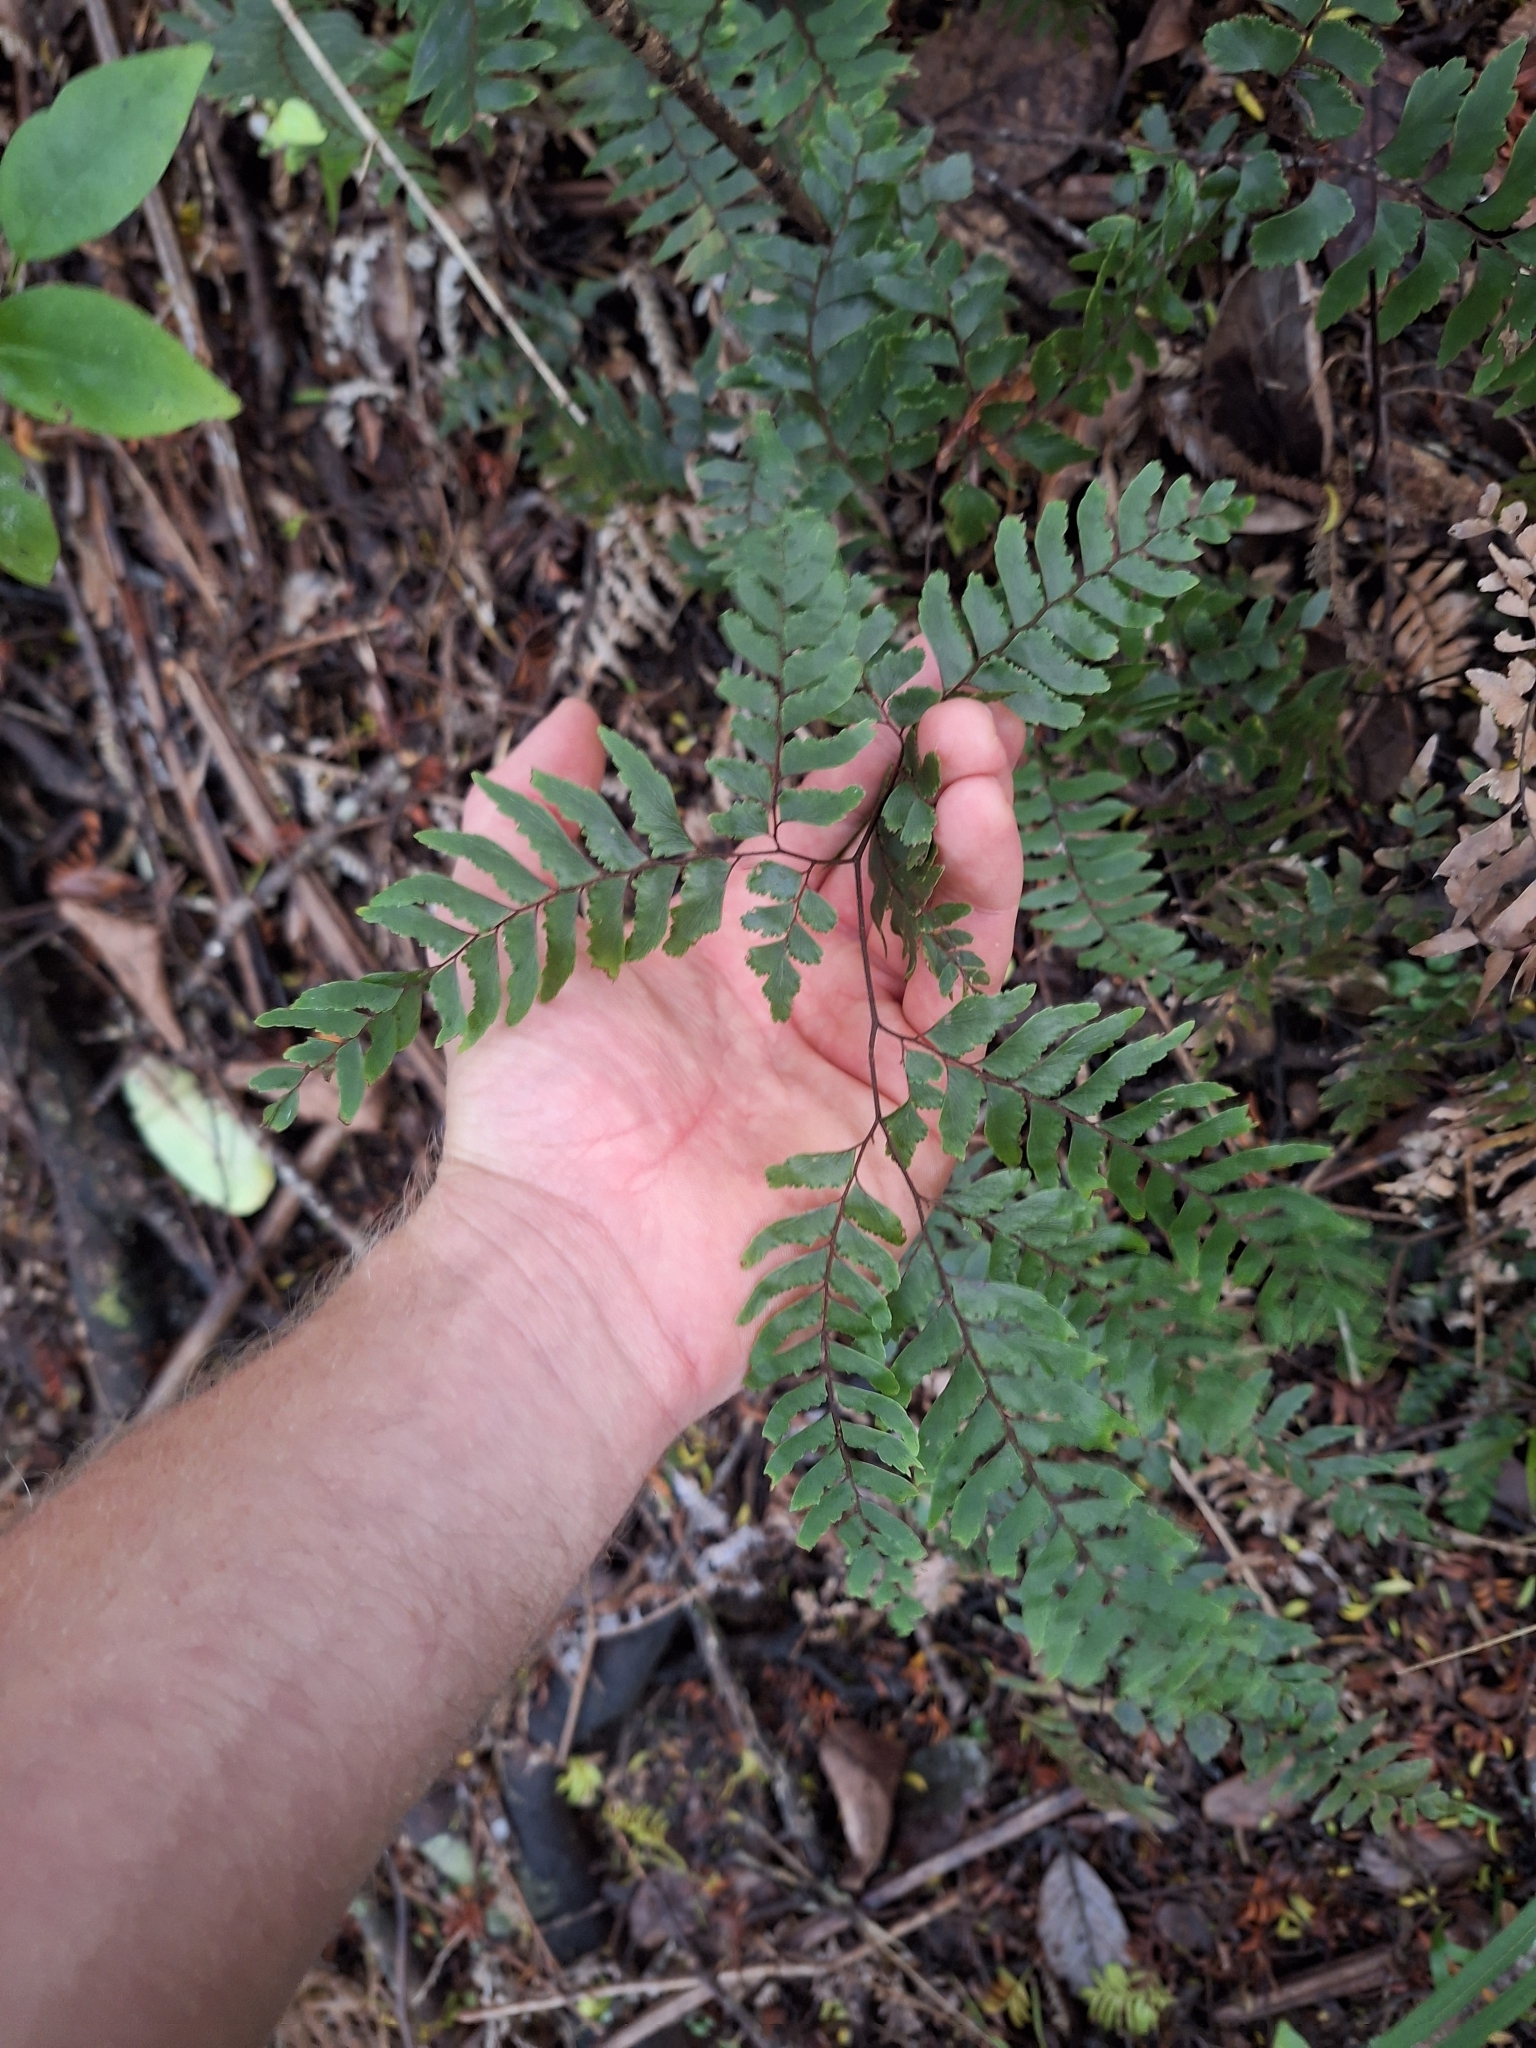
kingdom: Plantae
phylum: Tracheophyta
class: Polypodiopsida
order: Polypodiales
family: Pteridaceae
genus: Adiantum
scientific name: Adiantum fulvum
